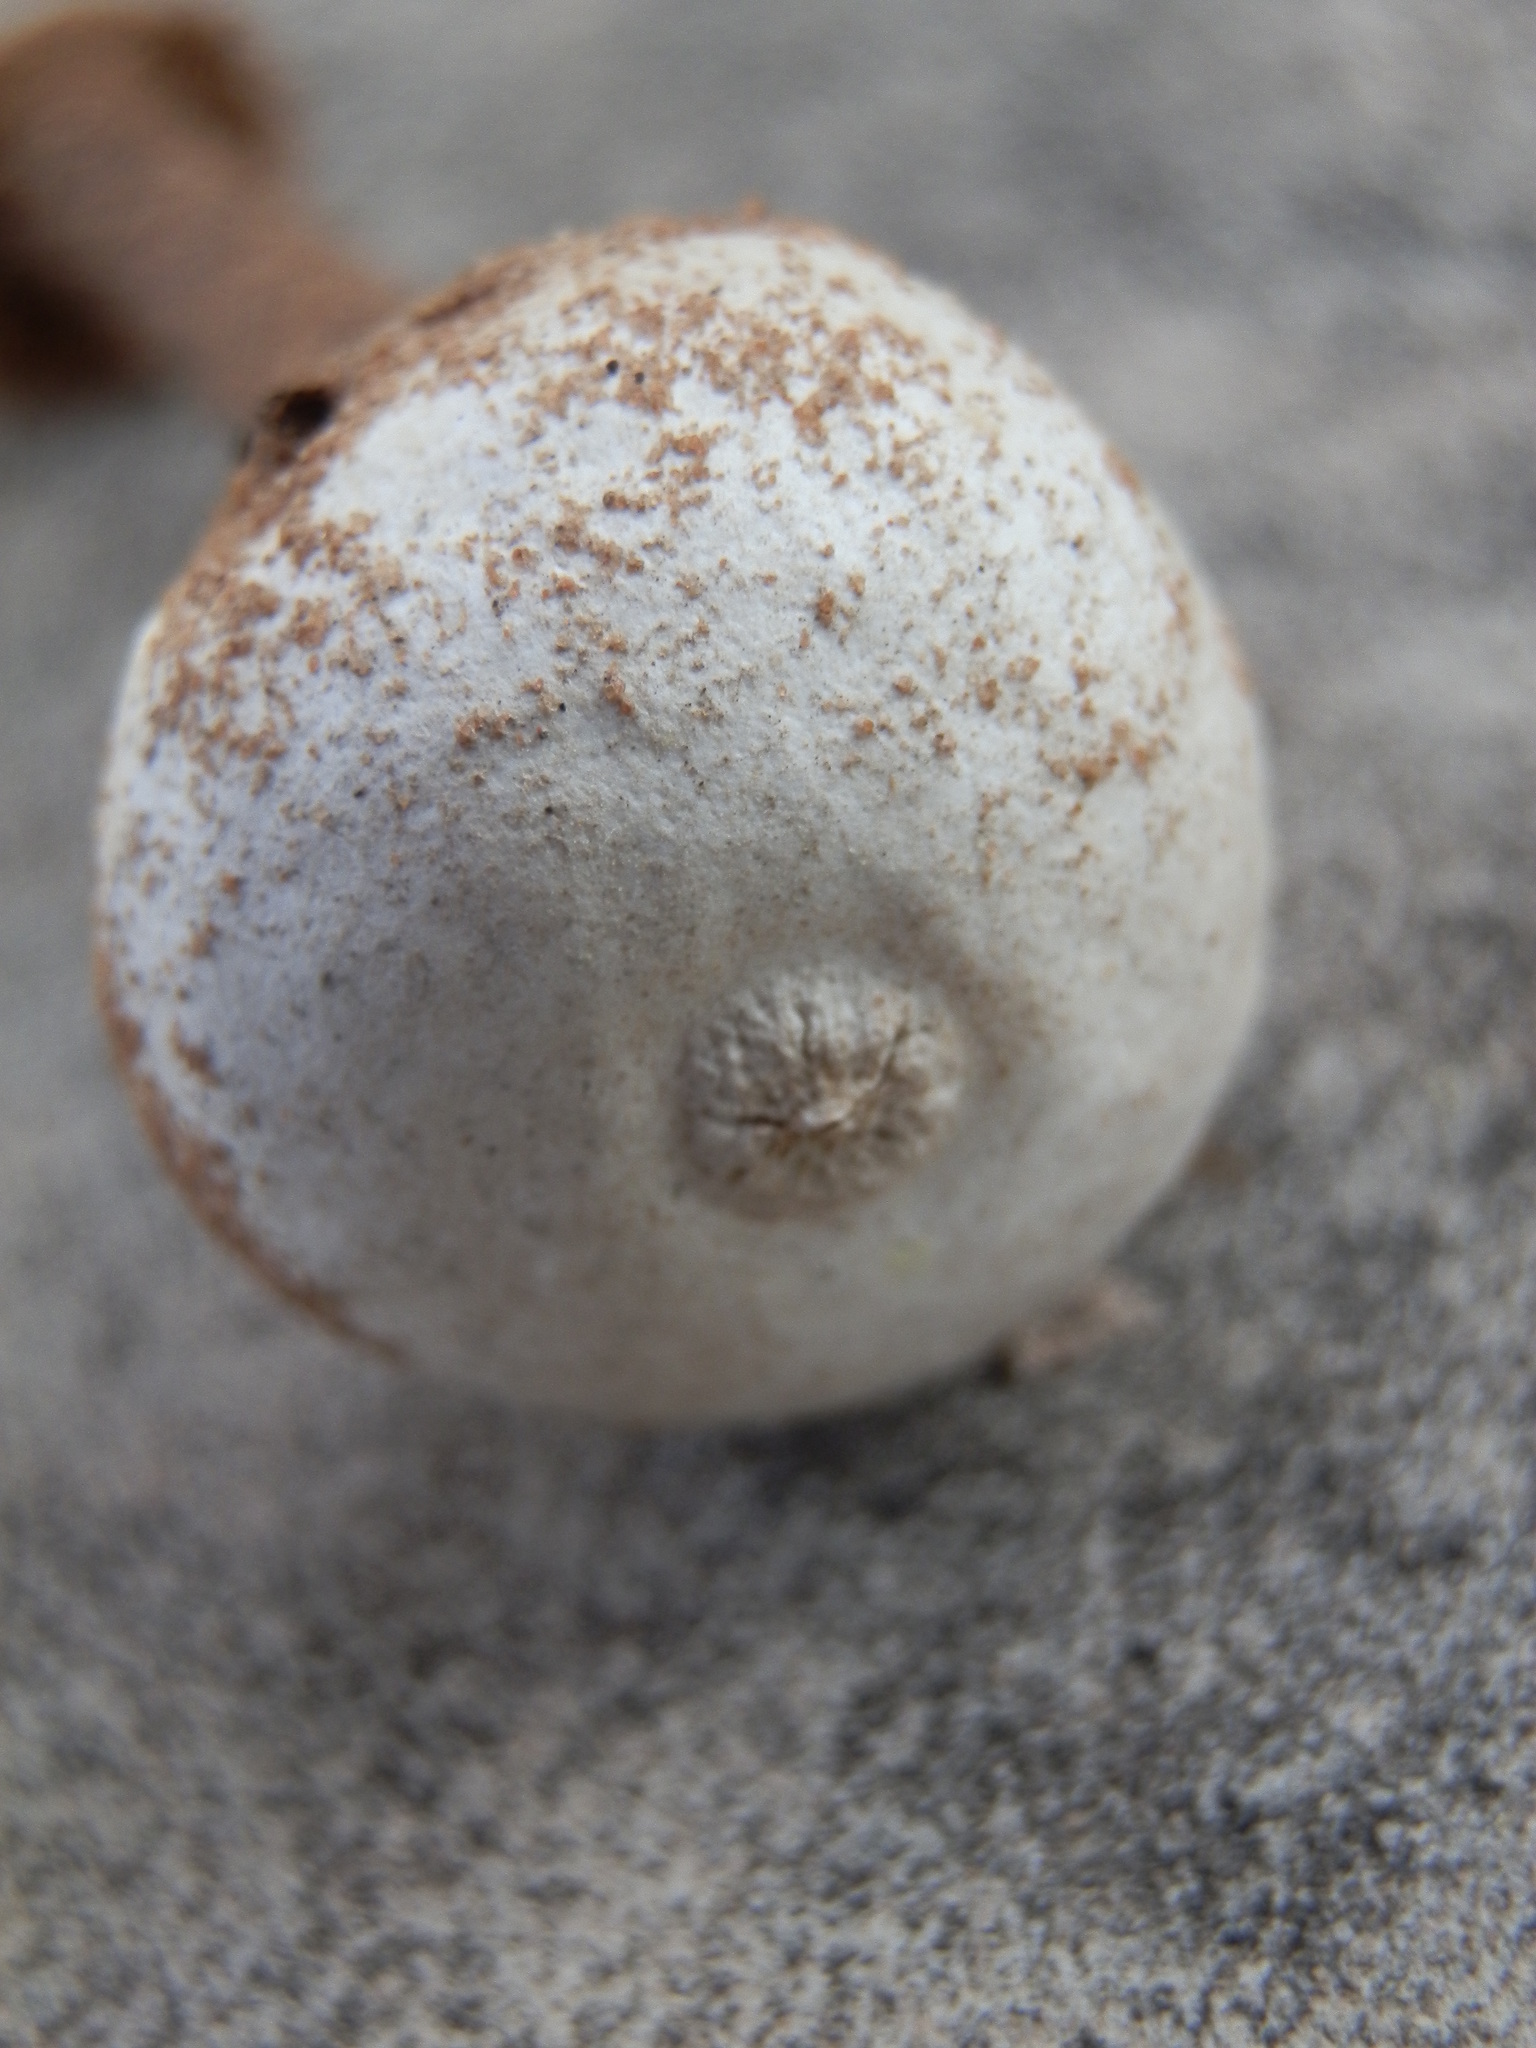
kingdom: Fungi
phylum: Basidiomycota
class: Agaricomycetes
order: Agaricales
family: Agaricaceae
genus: Tulostoma
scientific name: Tulostoma polymorphum
